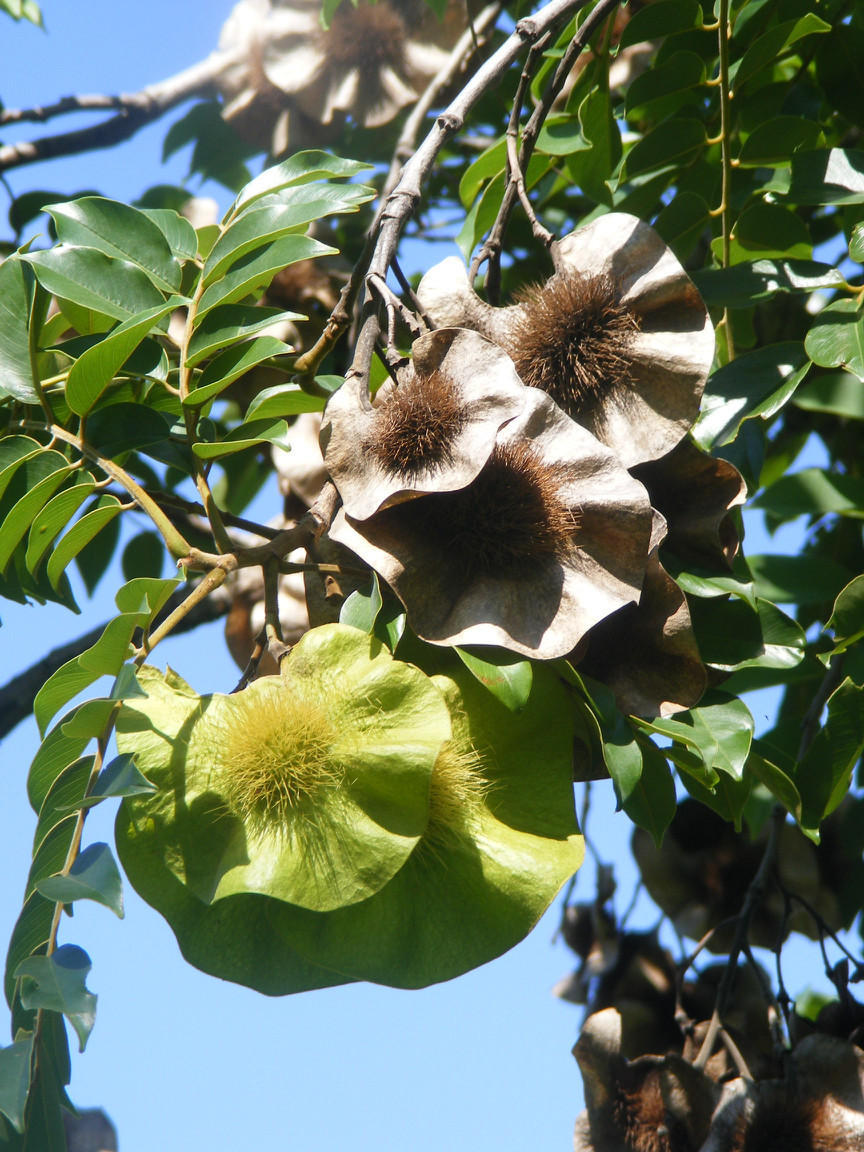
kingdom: Plantae
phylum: Tracheophyta
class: Magnoliopsida
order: Fabales
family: Fabaceae
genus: Pterocarpus
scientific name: Pterocarpus angolensis
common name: Bloodwood tree
